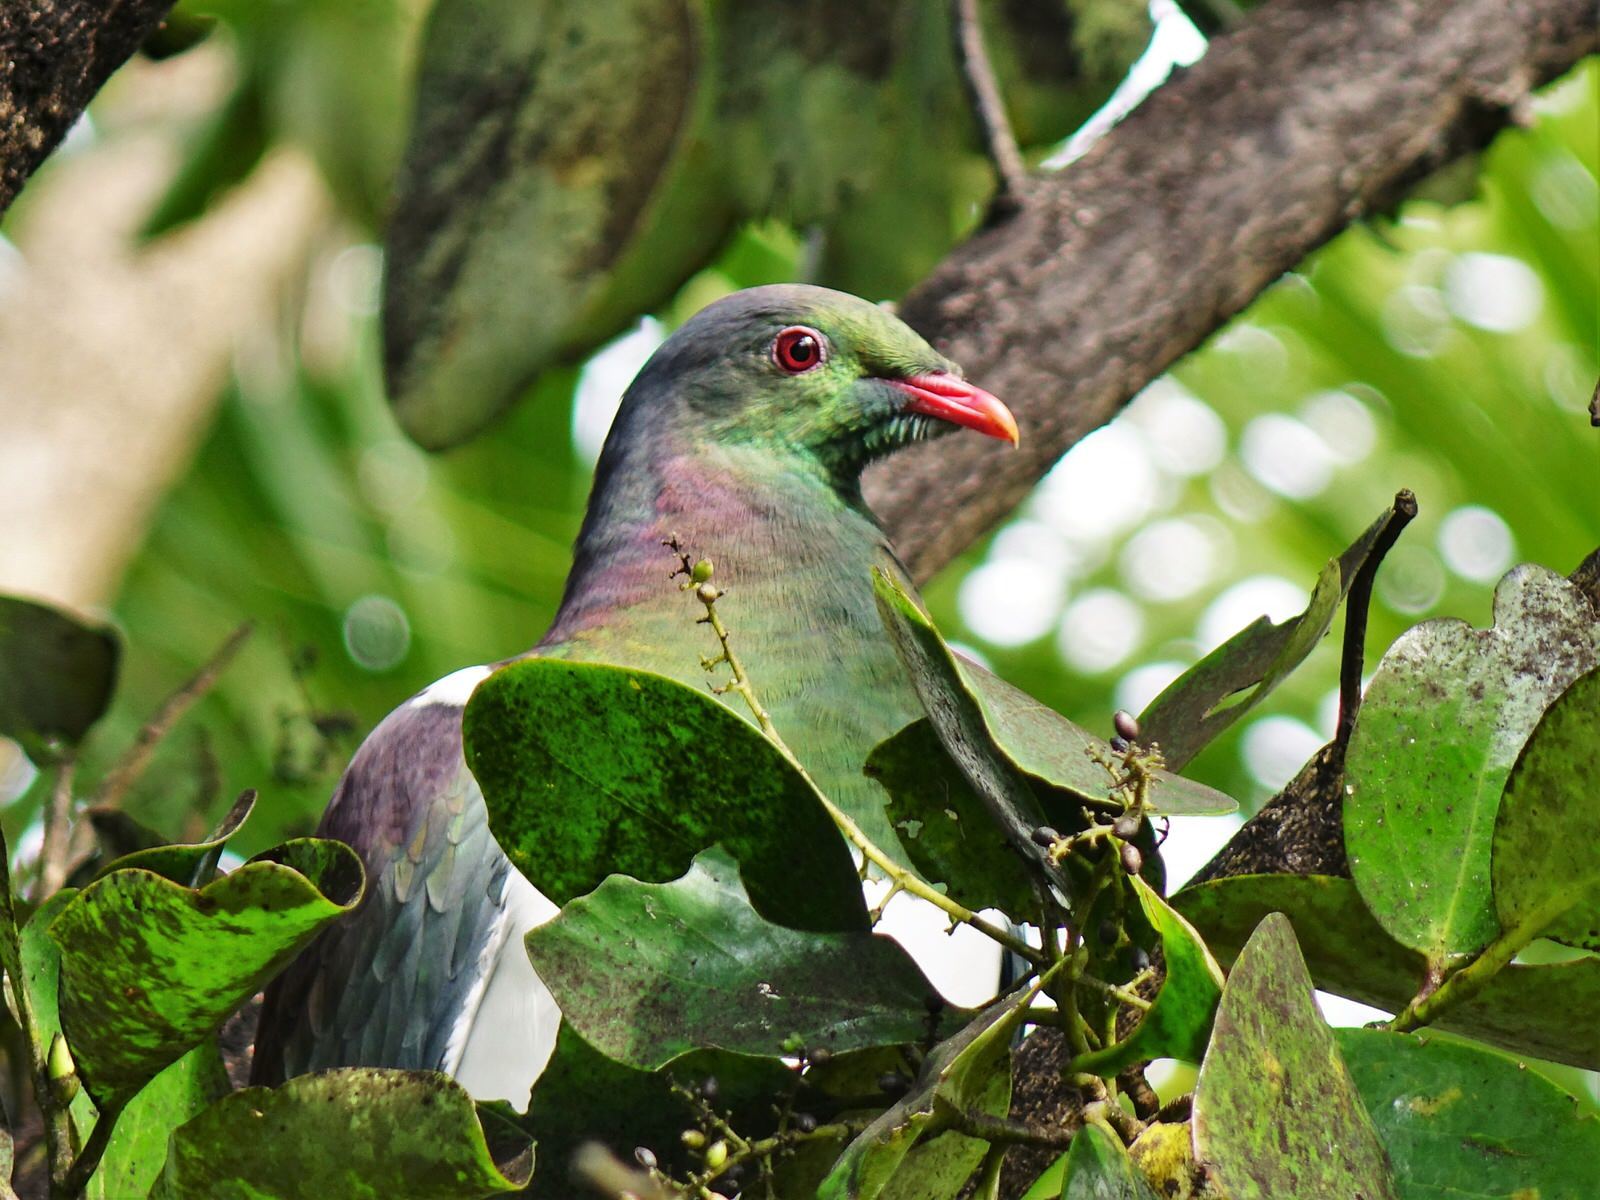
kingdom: Animalia
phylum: Chordata
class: Aves
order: Columbiformes
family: Columbidae
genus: Hemiphaga
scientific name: Hemiphaga novaeseelandiae
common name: New zealand pigeon
